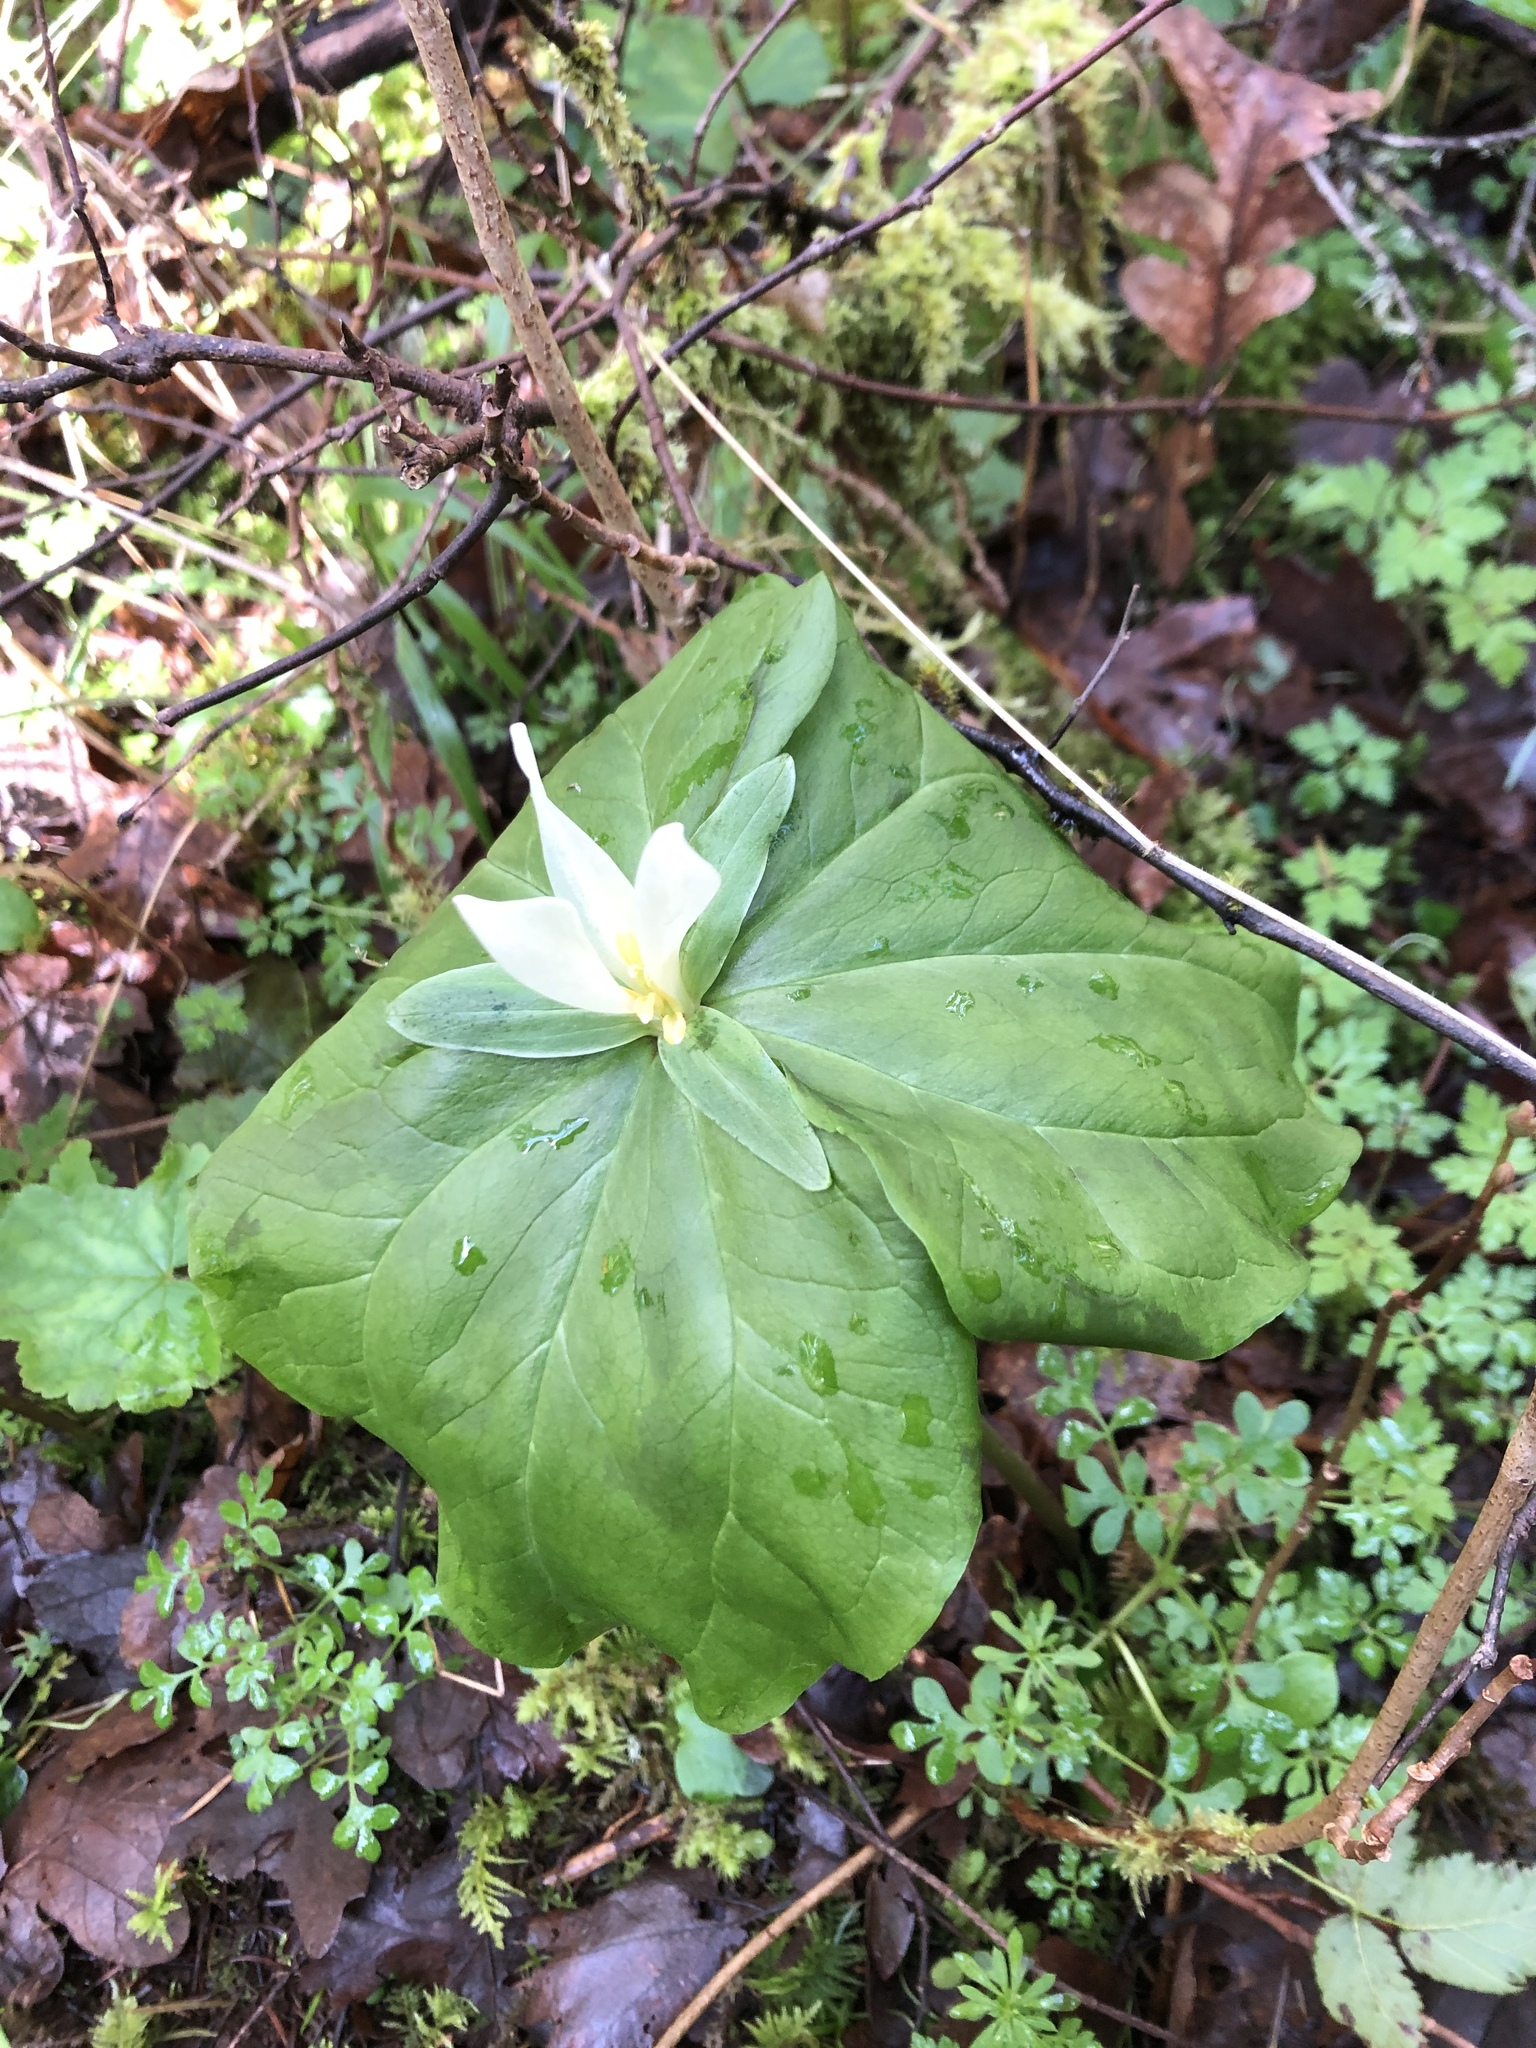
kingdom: Plantae
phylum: Tracheophyta
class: Liliopsida
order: Liliales
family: Melanthiaceae
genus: Trillium
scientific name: Trillium albidum
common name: Freeman's trillium
